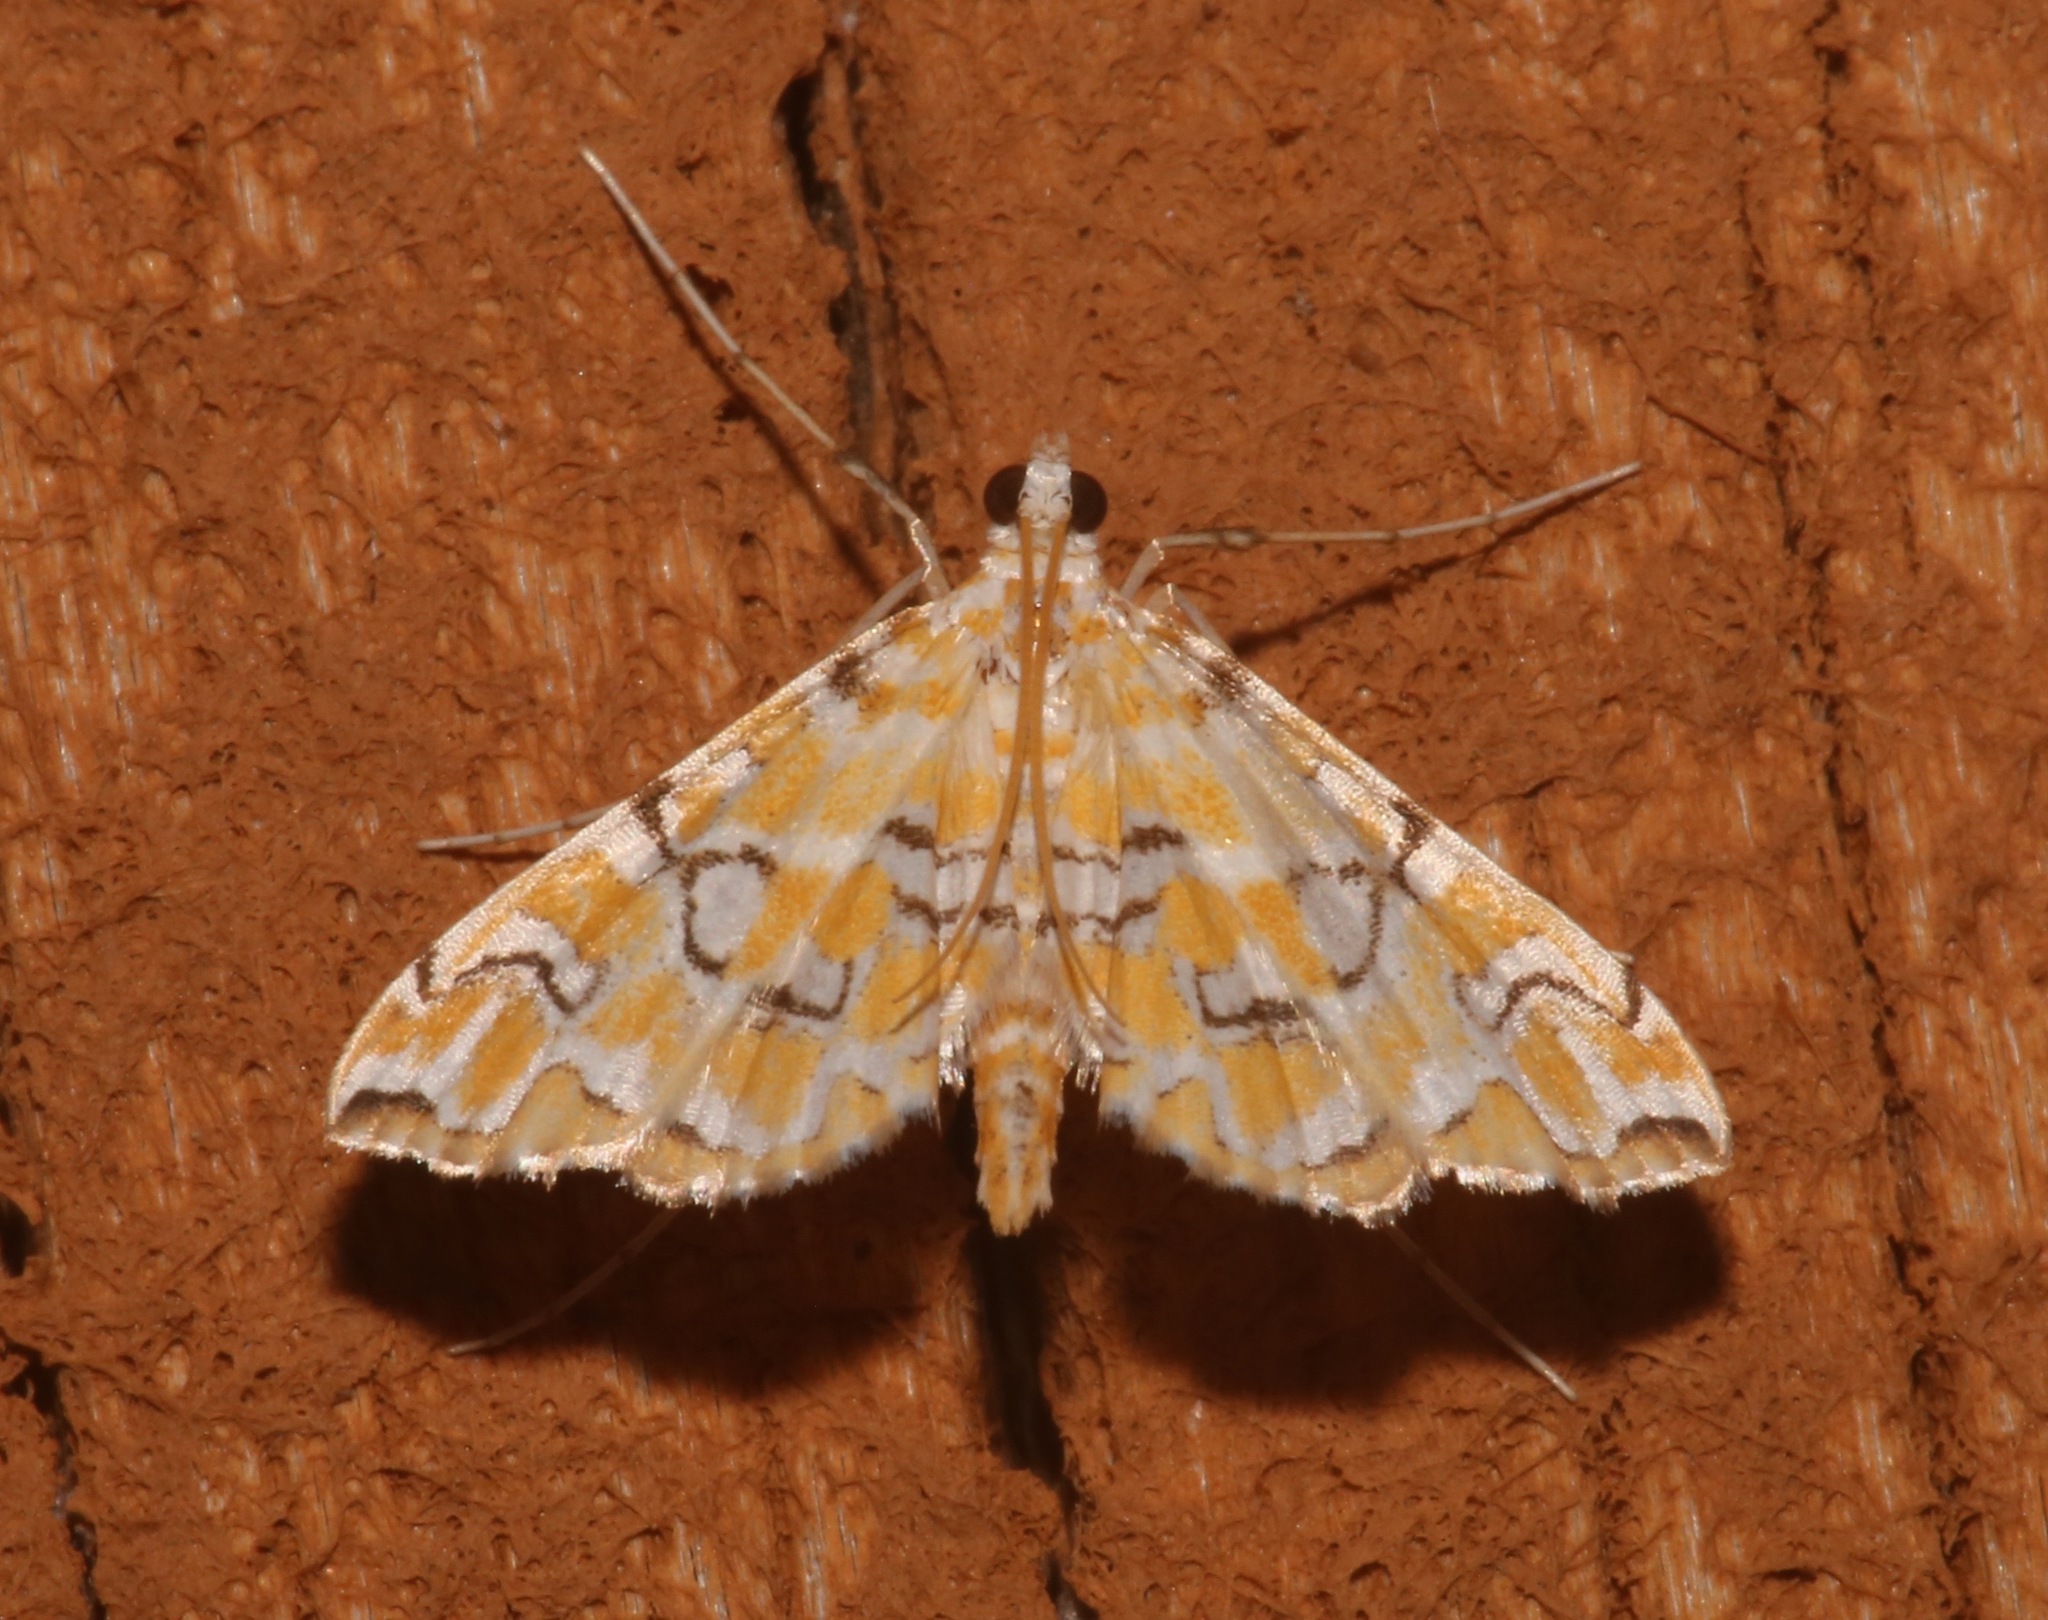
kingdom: Animalia
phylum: Arthropoda
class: Insecta
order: Lepidoptera
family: Crambidae
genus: Elophila
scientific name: Elophila icciusalis
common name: Pondside pyralid moth
